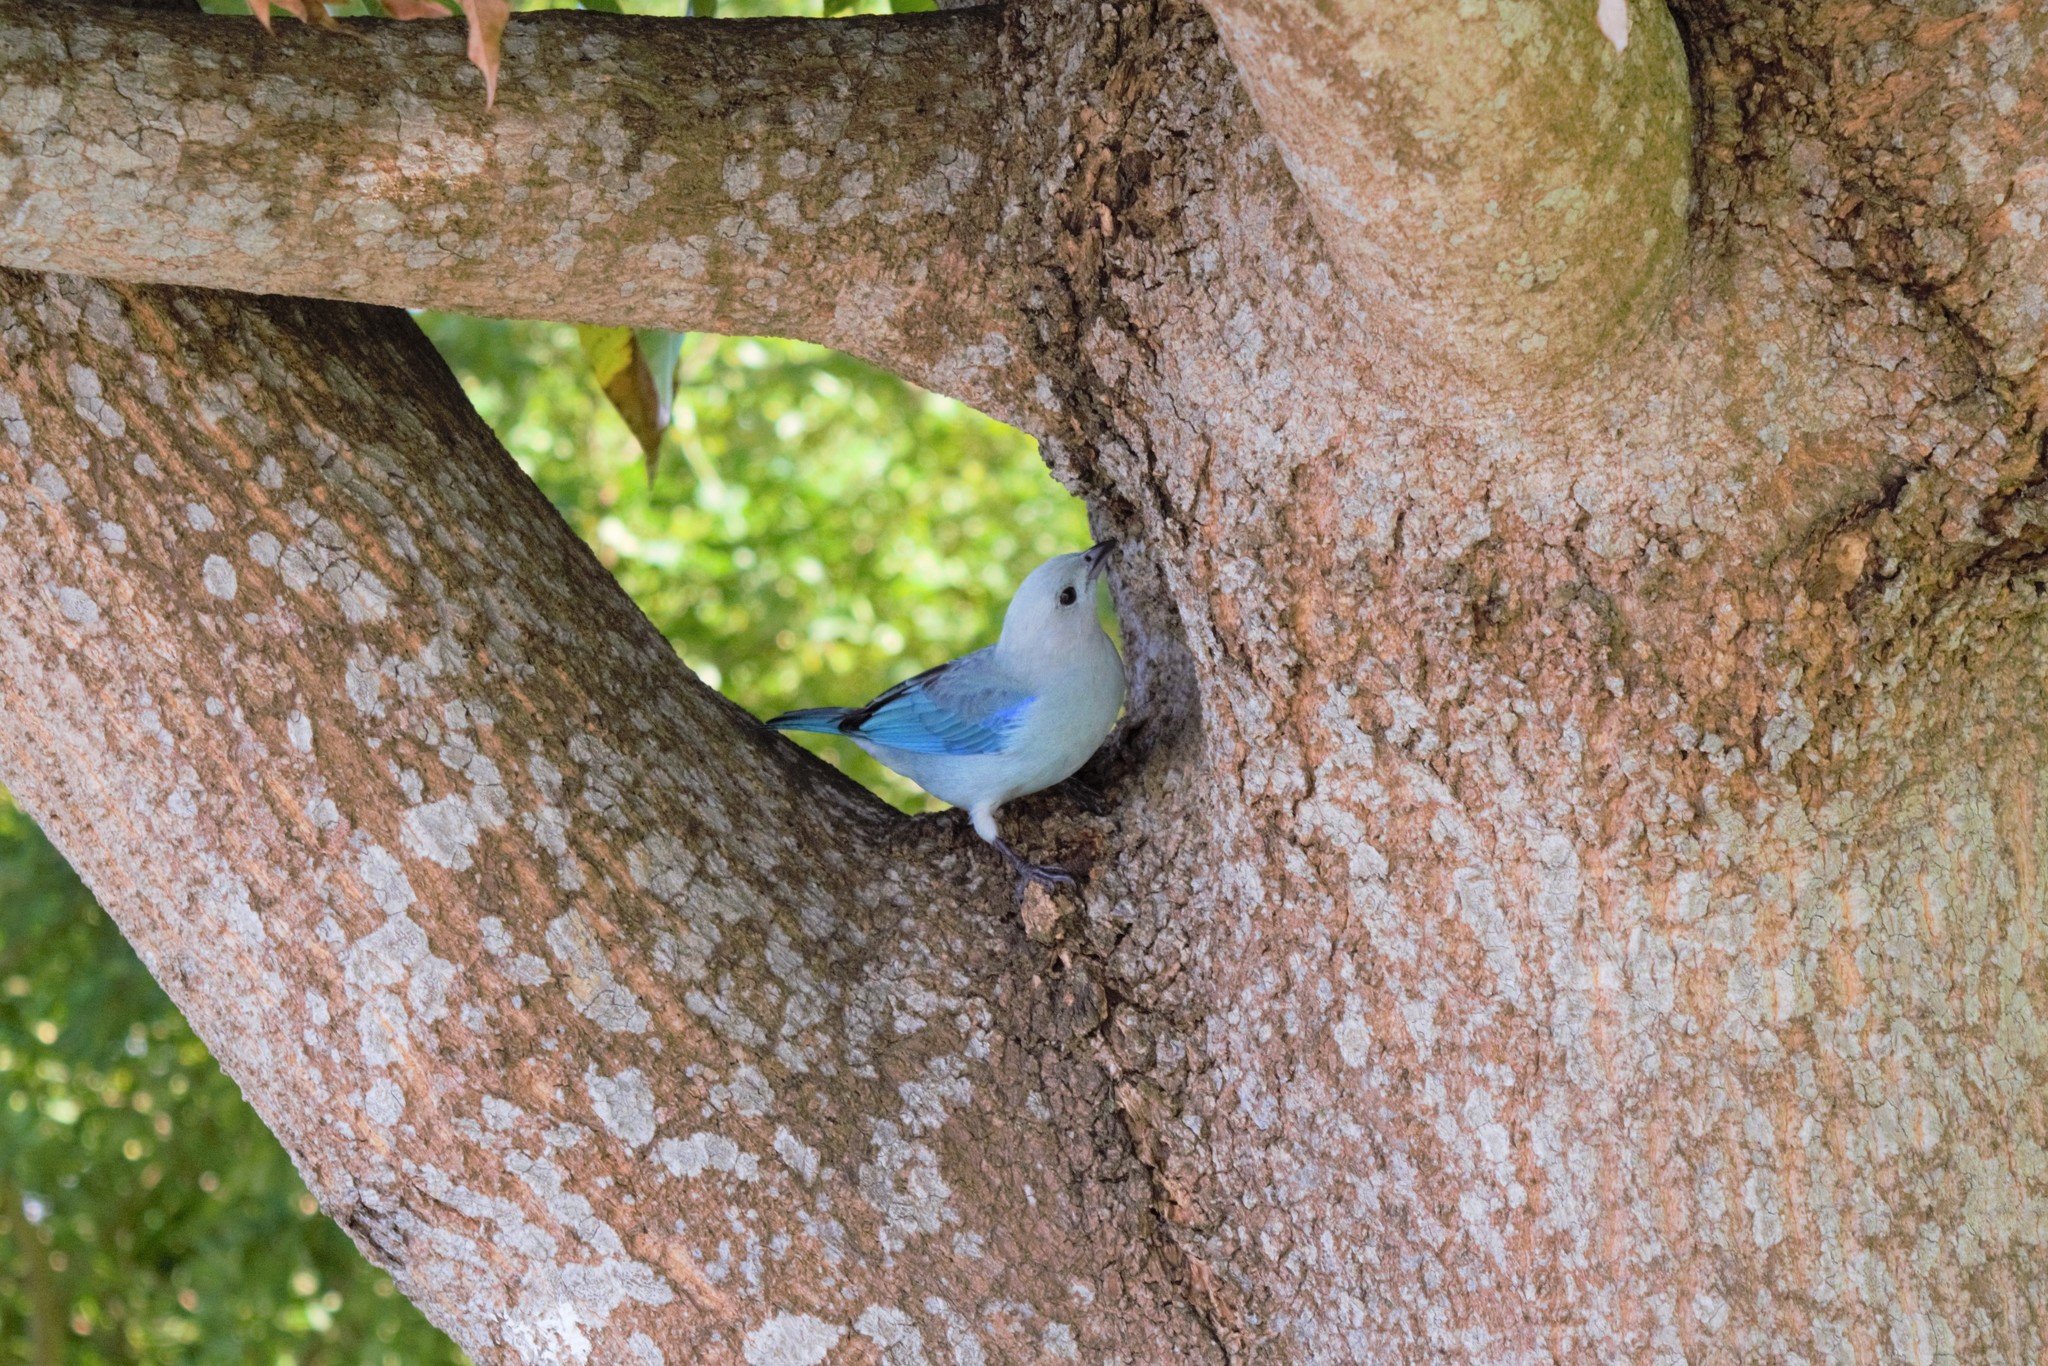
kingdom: Animalia
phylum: Chordata
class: Aves
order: Passeriformes
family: Thraupidae
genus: Thraupis
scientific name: Thraupis episcopus
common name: Blue-grey tanager
